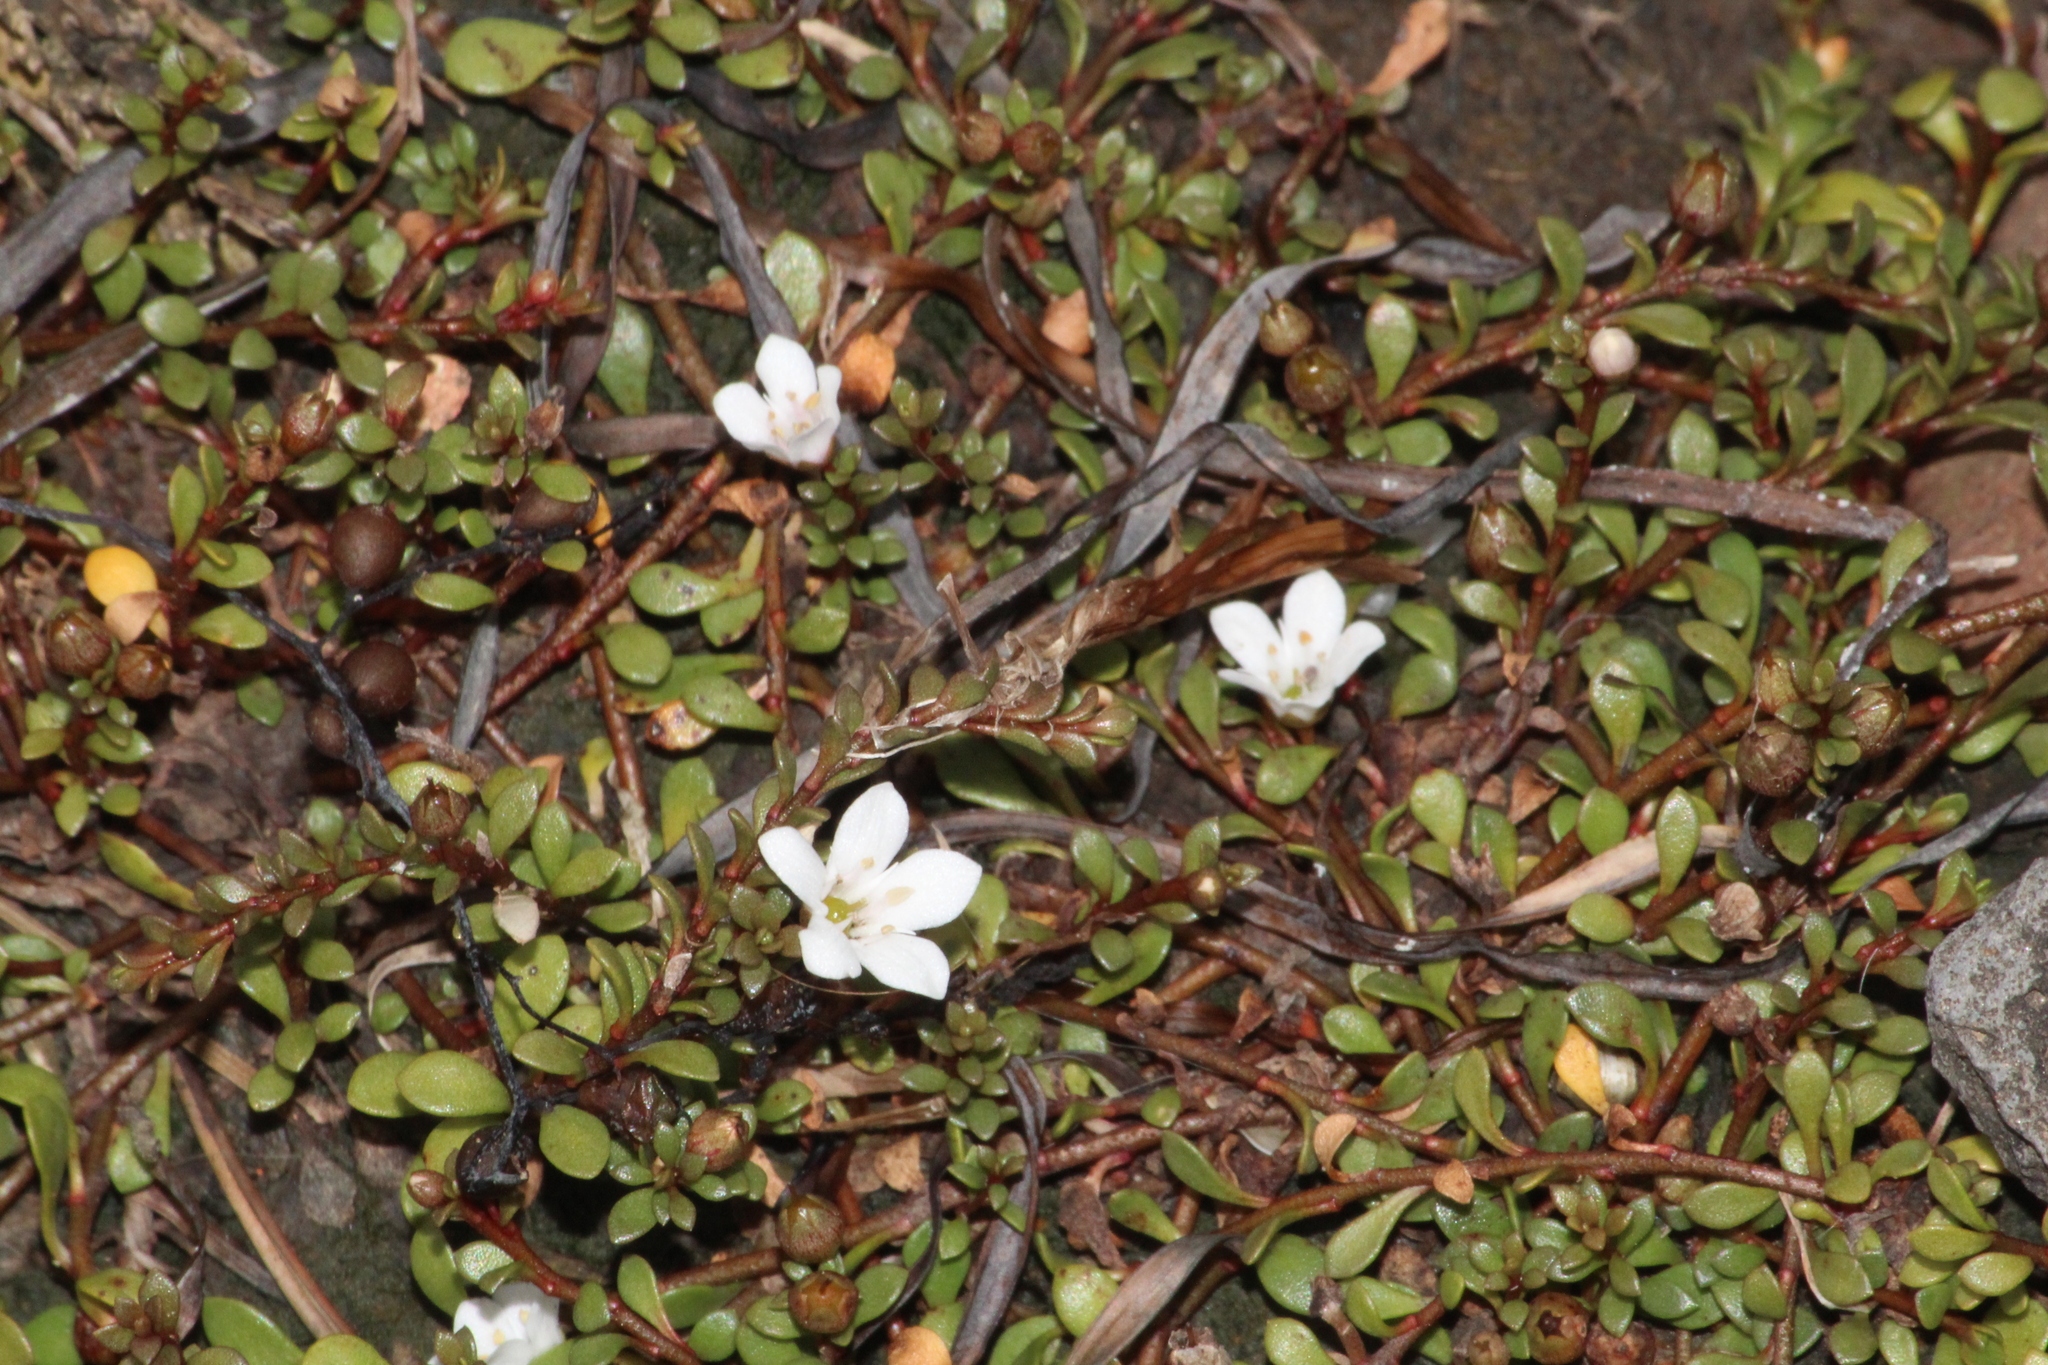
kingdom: Plantae
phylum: Tracheophyta
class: Magnoliopsida
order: Ericales
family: Primulaceae
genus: Samolus
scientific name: Samolus repens
